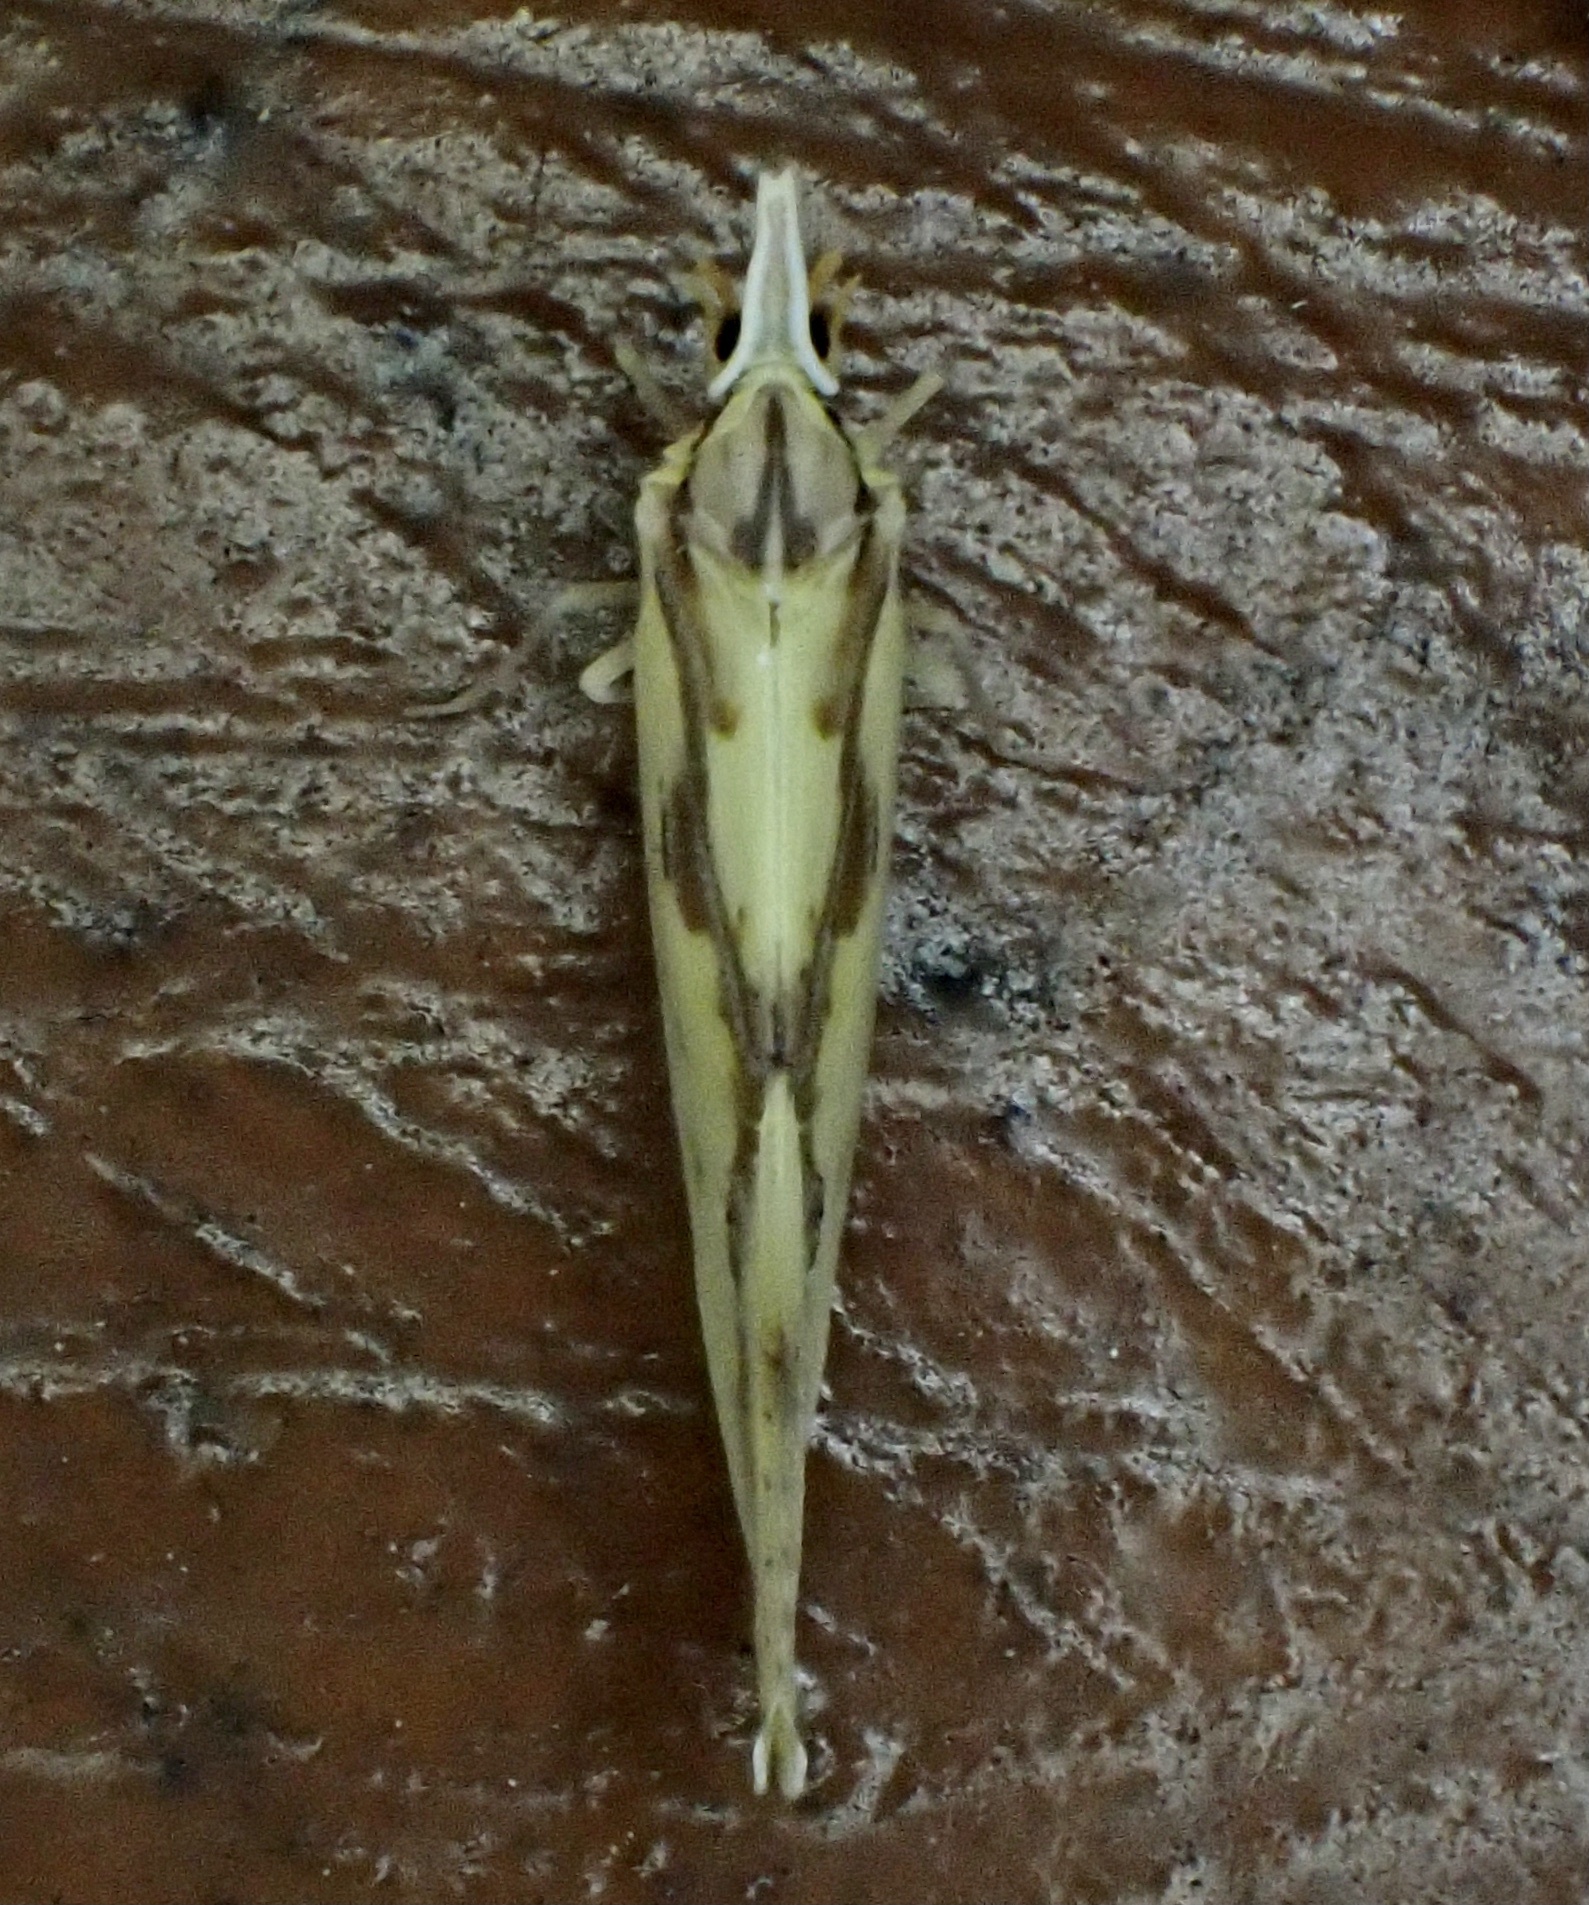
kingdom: Animalia
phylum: Arthropoda
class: Insecta
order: Hemiptera
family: Derbidae
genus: Otiocerus
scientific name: Otiocerus wolfii
